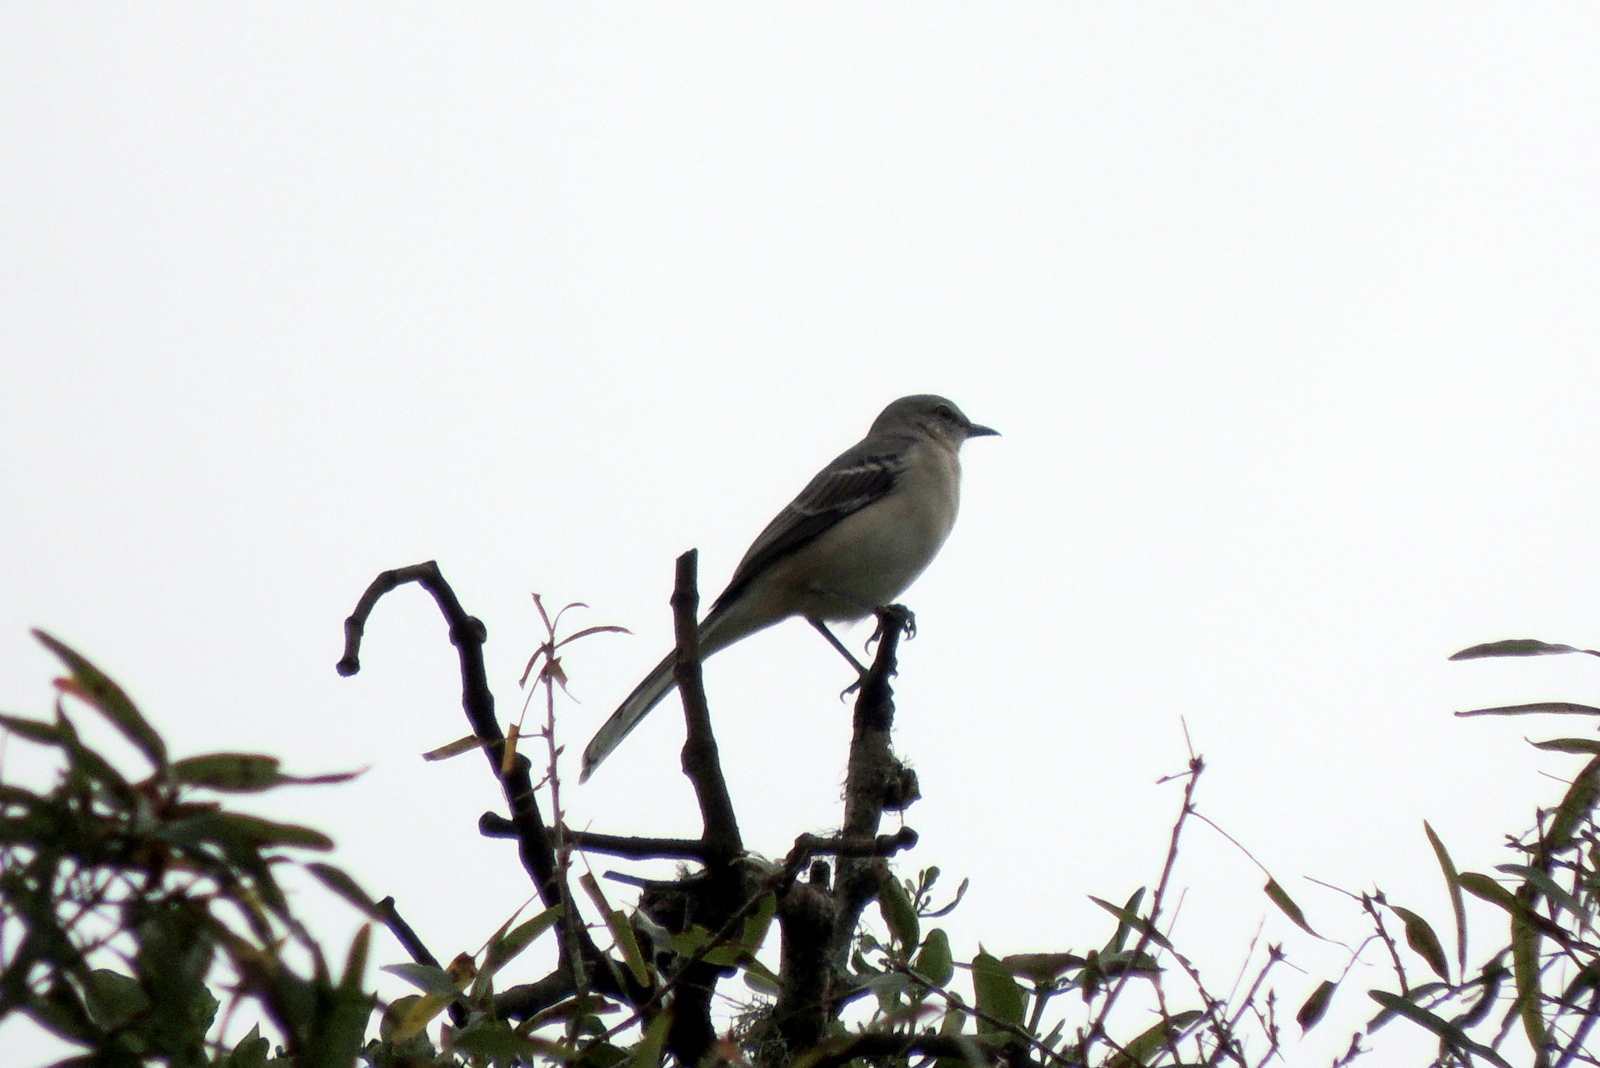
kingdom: Animalia
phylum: Chordata
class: Aves
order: Passeriformes
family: Mimidae
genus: Mimus
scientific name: Mimus polyglottos
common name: Northern mockingbird
